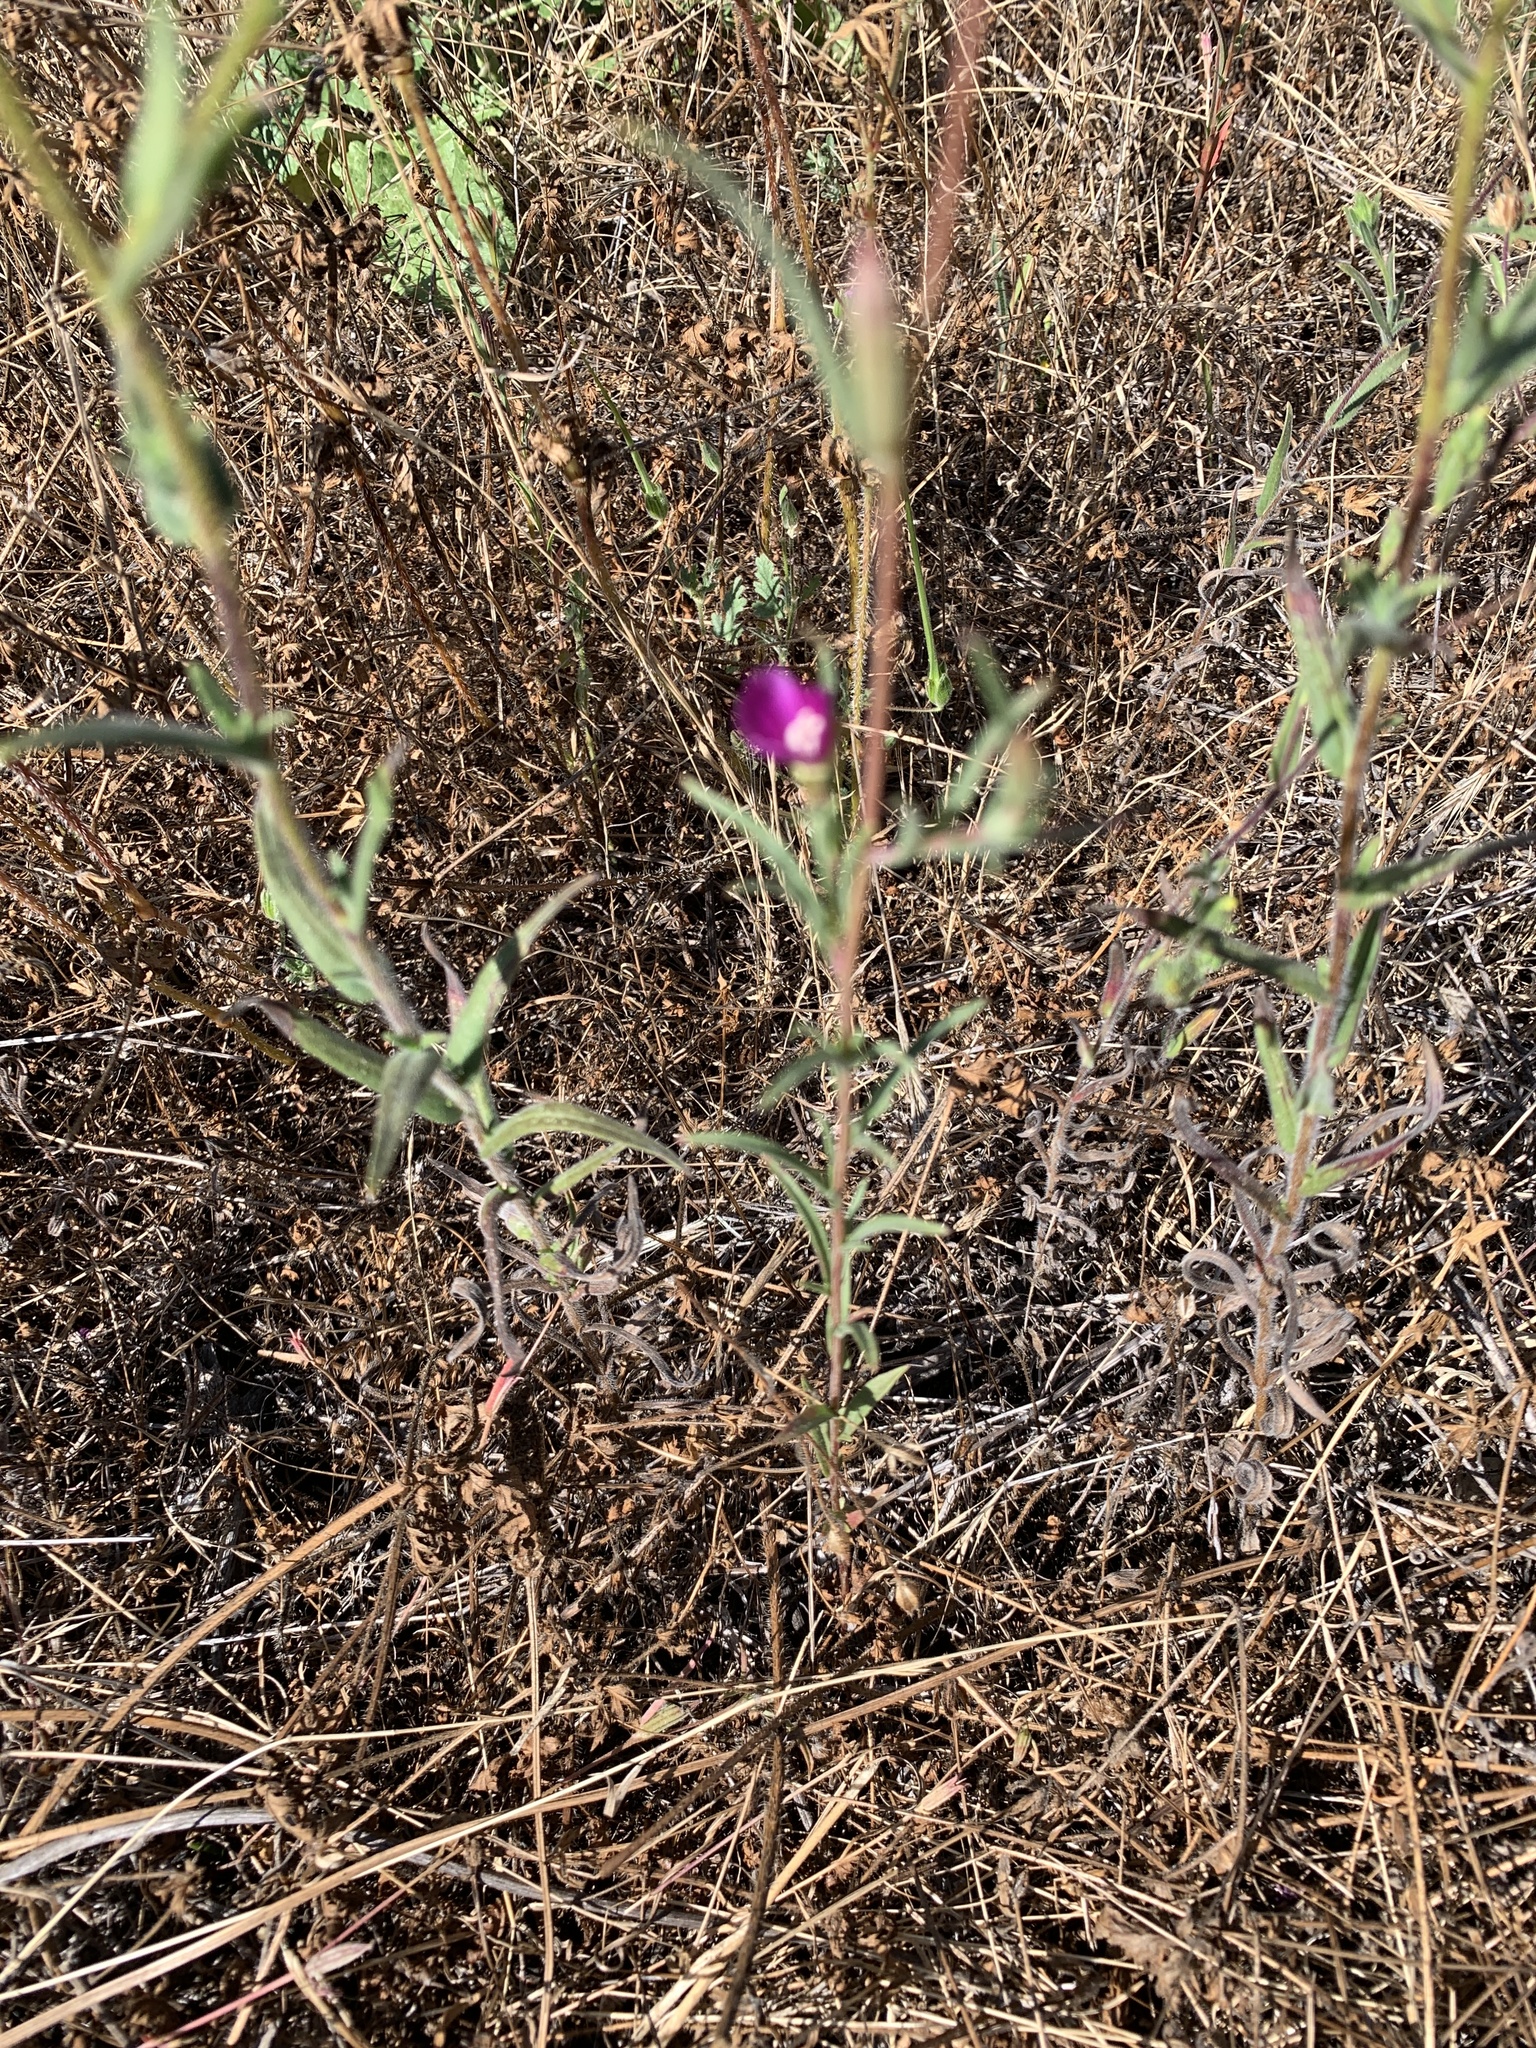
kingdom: Plantae
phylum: Tracheophyta
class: Magnoliopsida
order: Myrtales
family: Onagraceae
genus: Clarkia
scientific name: Clarkia purpurea
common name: Purple clarkia
